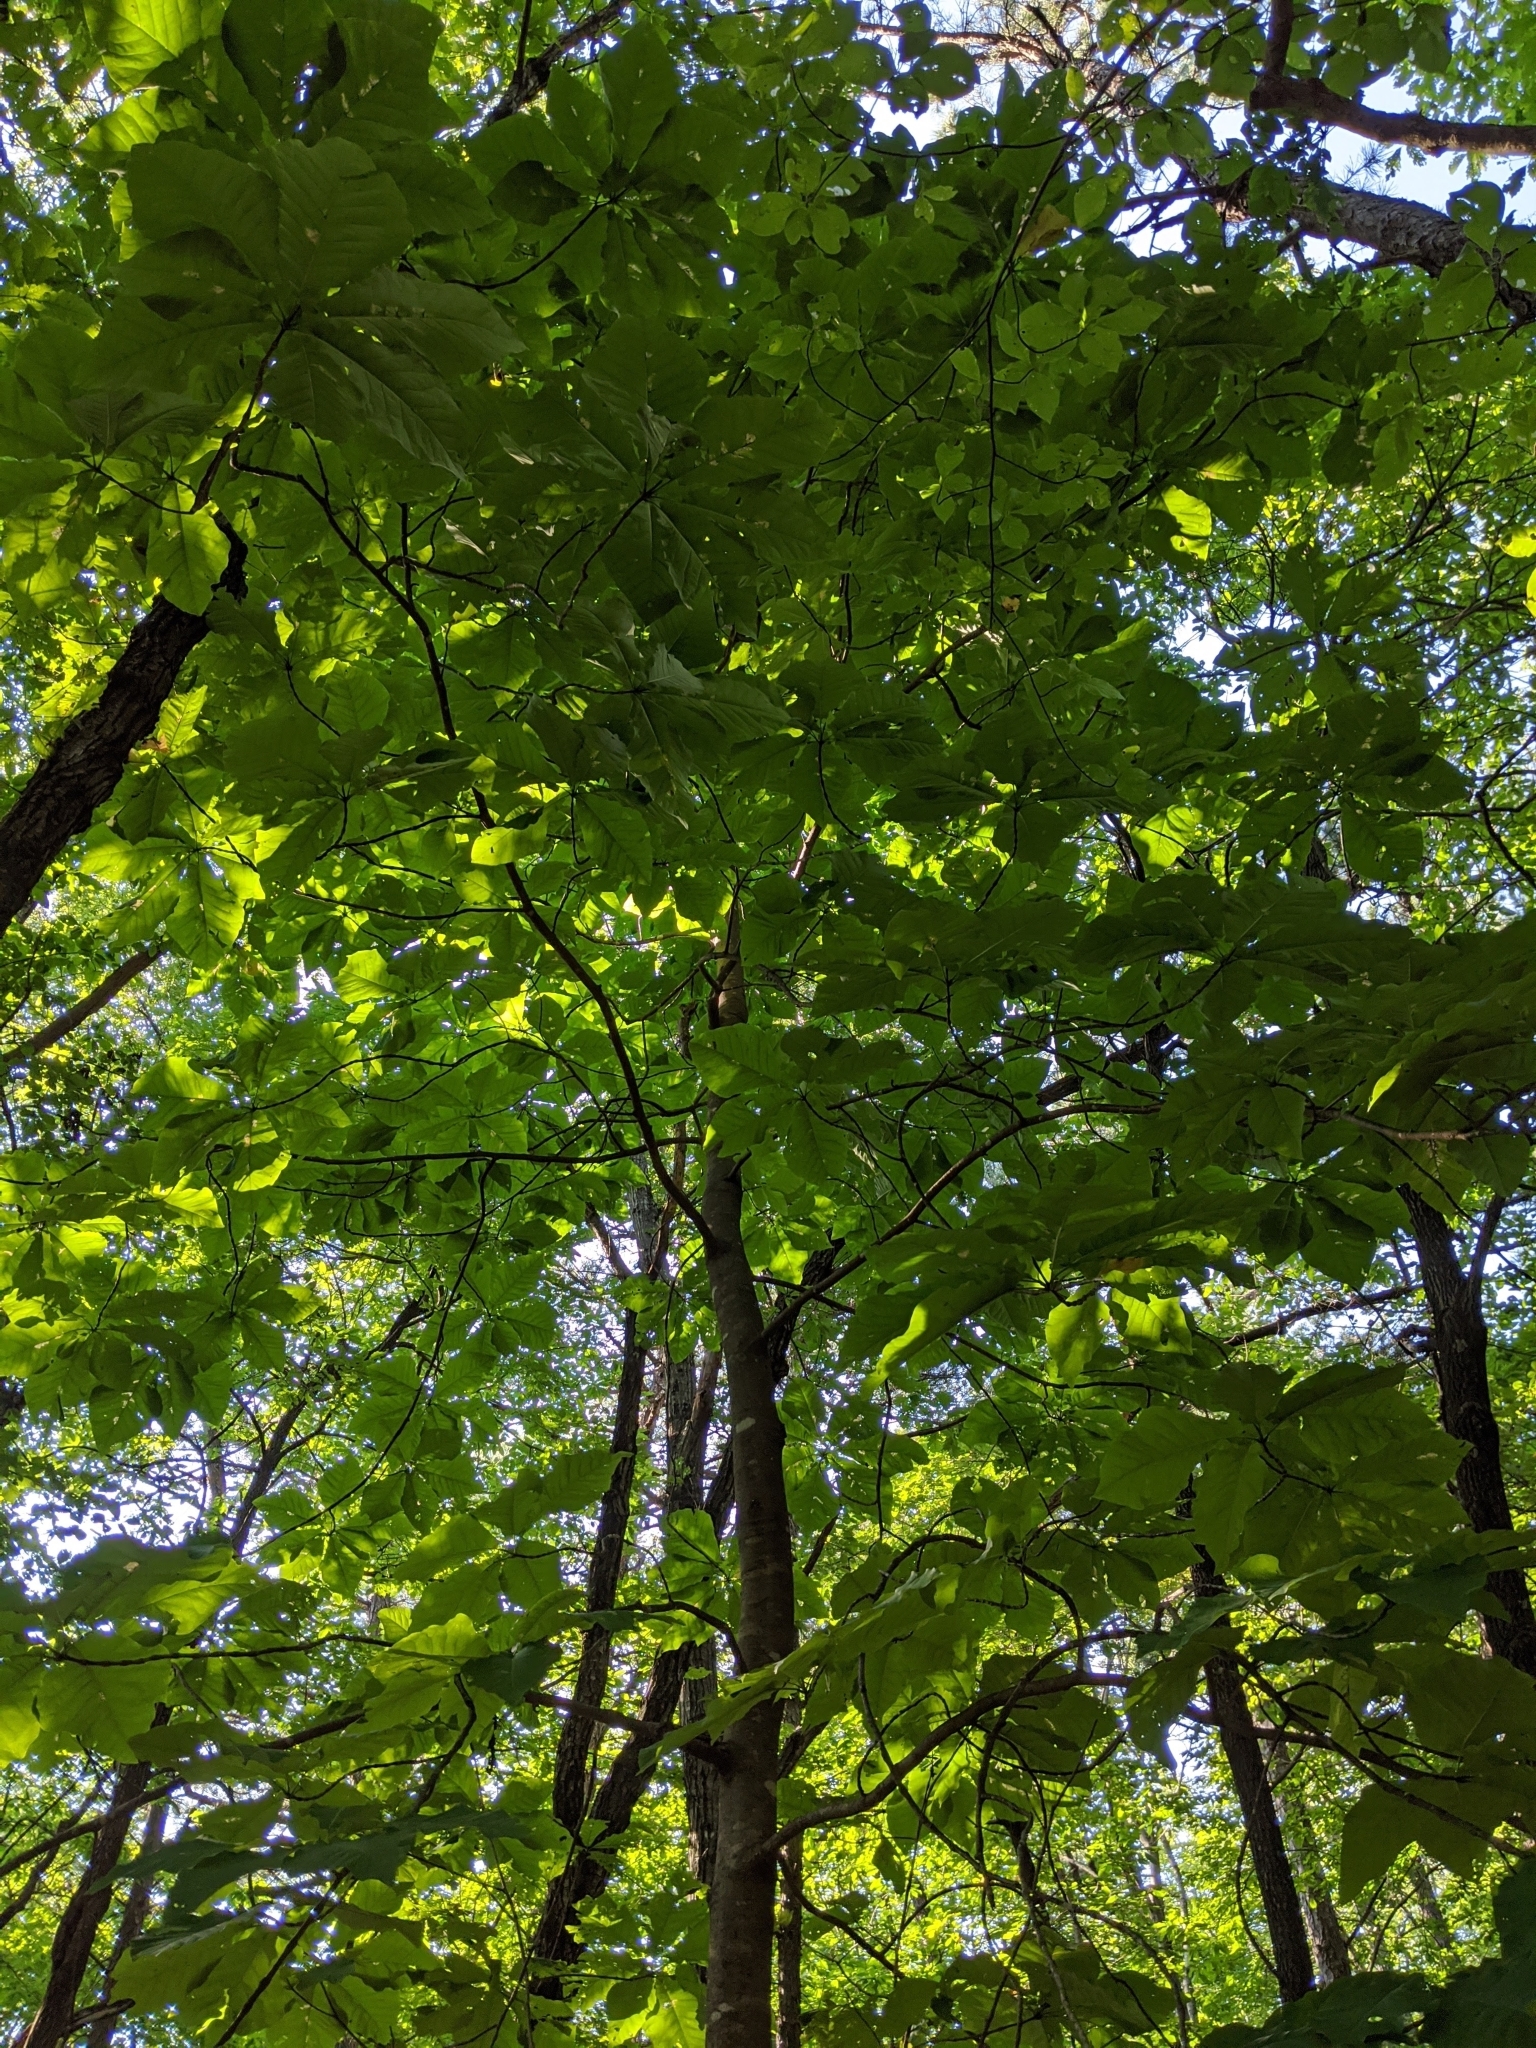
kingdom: Plantae
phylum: Tracheophyta
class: Magnoliopsida
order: Magnoliales
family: Magnoliaceae
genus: Magnolia
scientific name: Magnolia fraseri
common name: Fraser's magnolia
